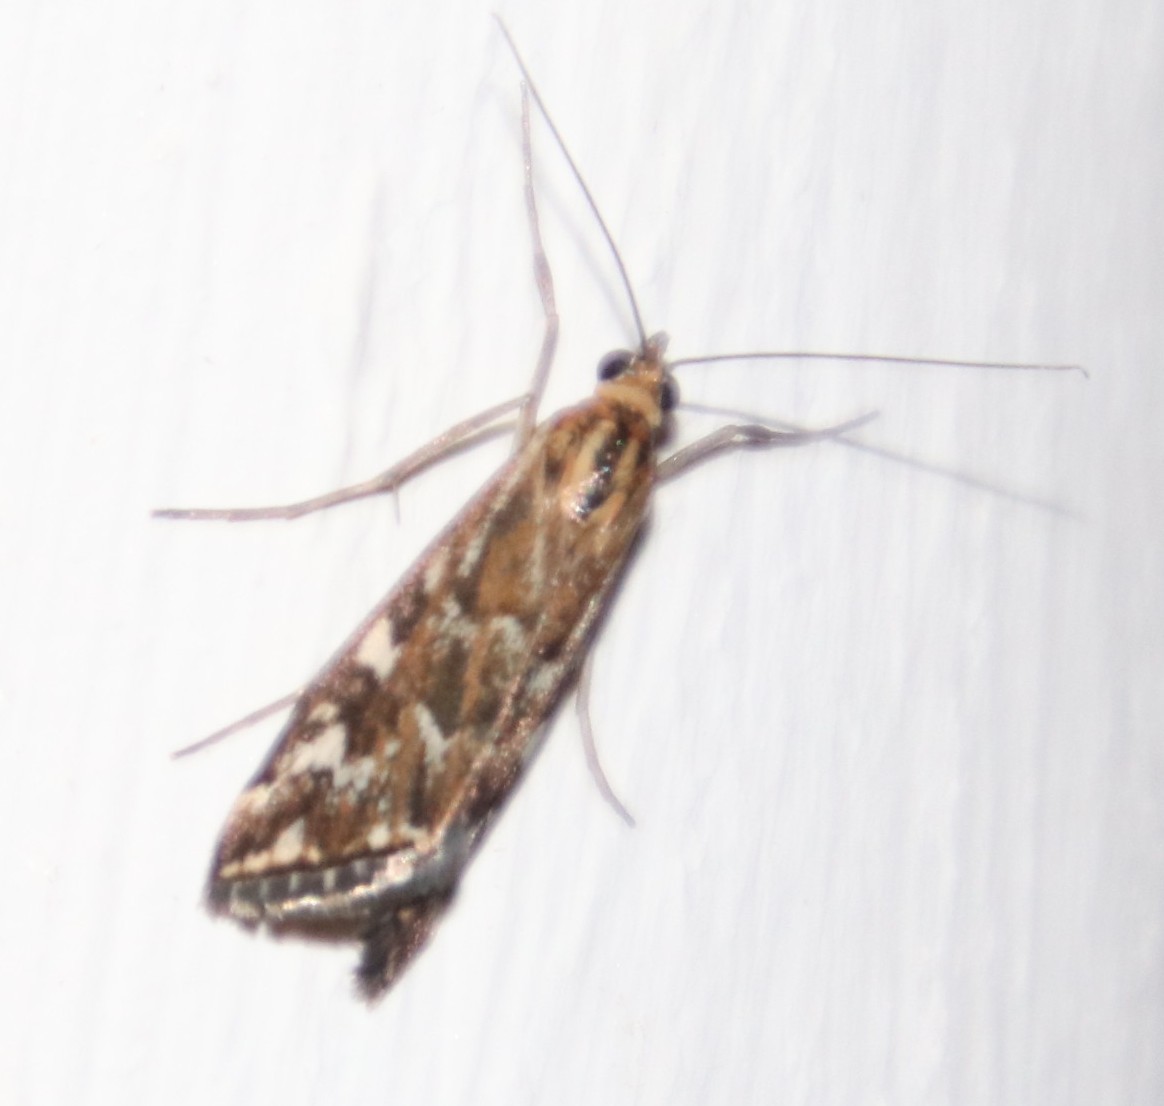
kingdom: Animalia
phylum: Arthropoda
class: Insecta
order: Lepidoptera
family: Crambidae
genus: Loxostege
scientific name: Loxostege frustalis
